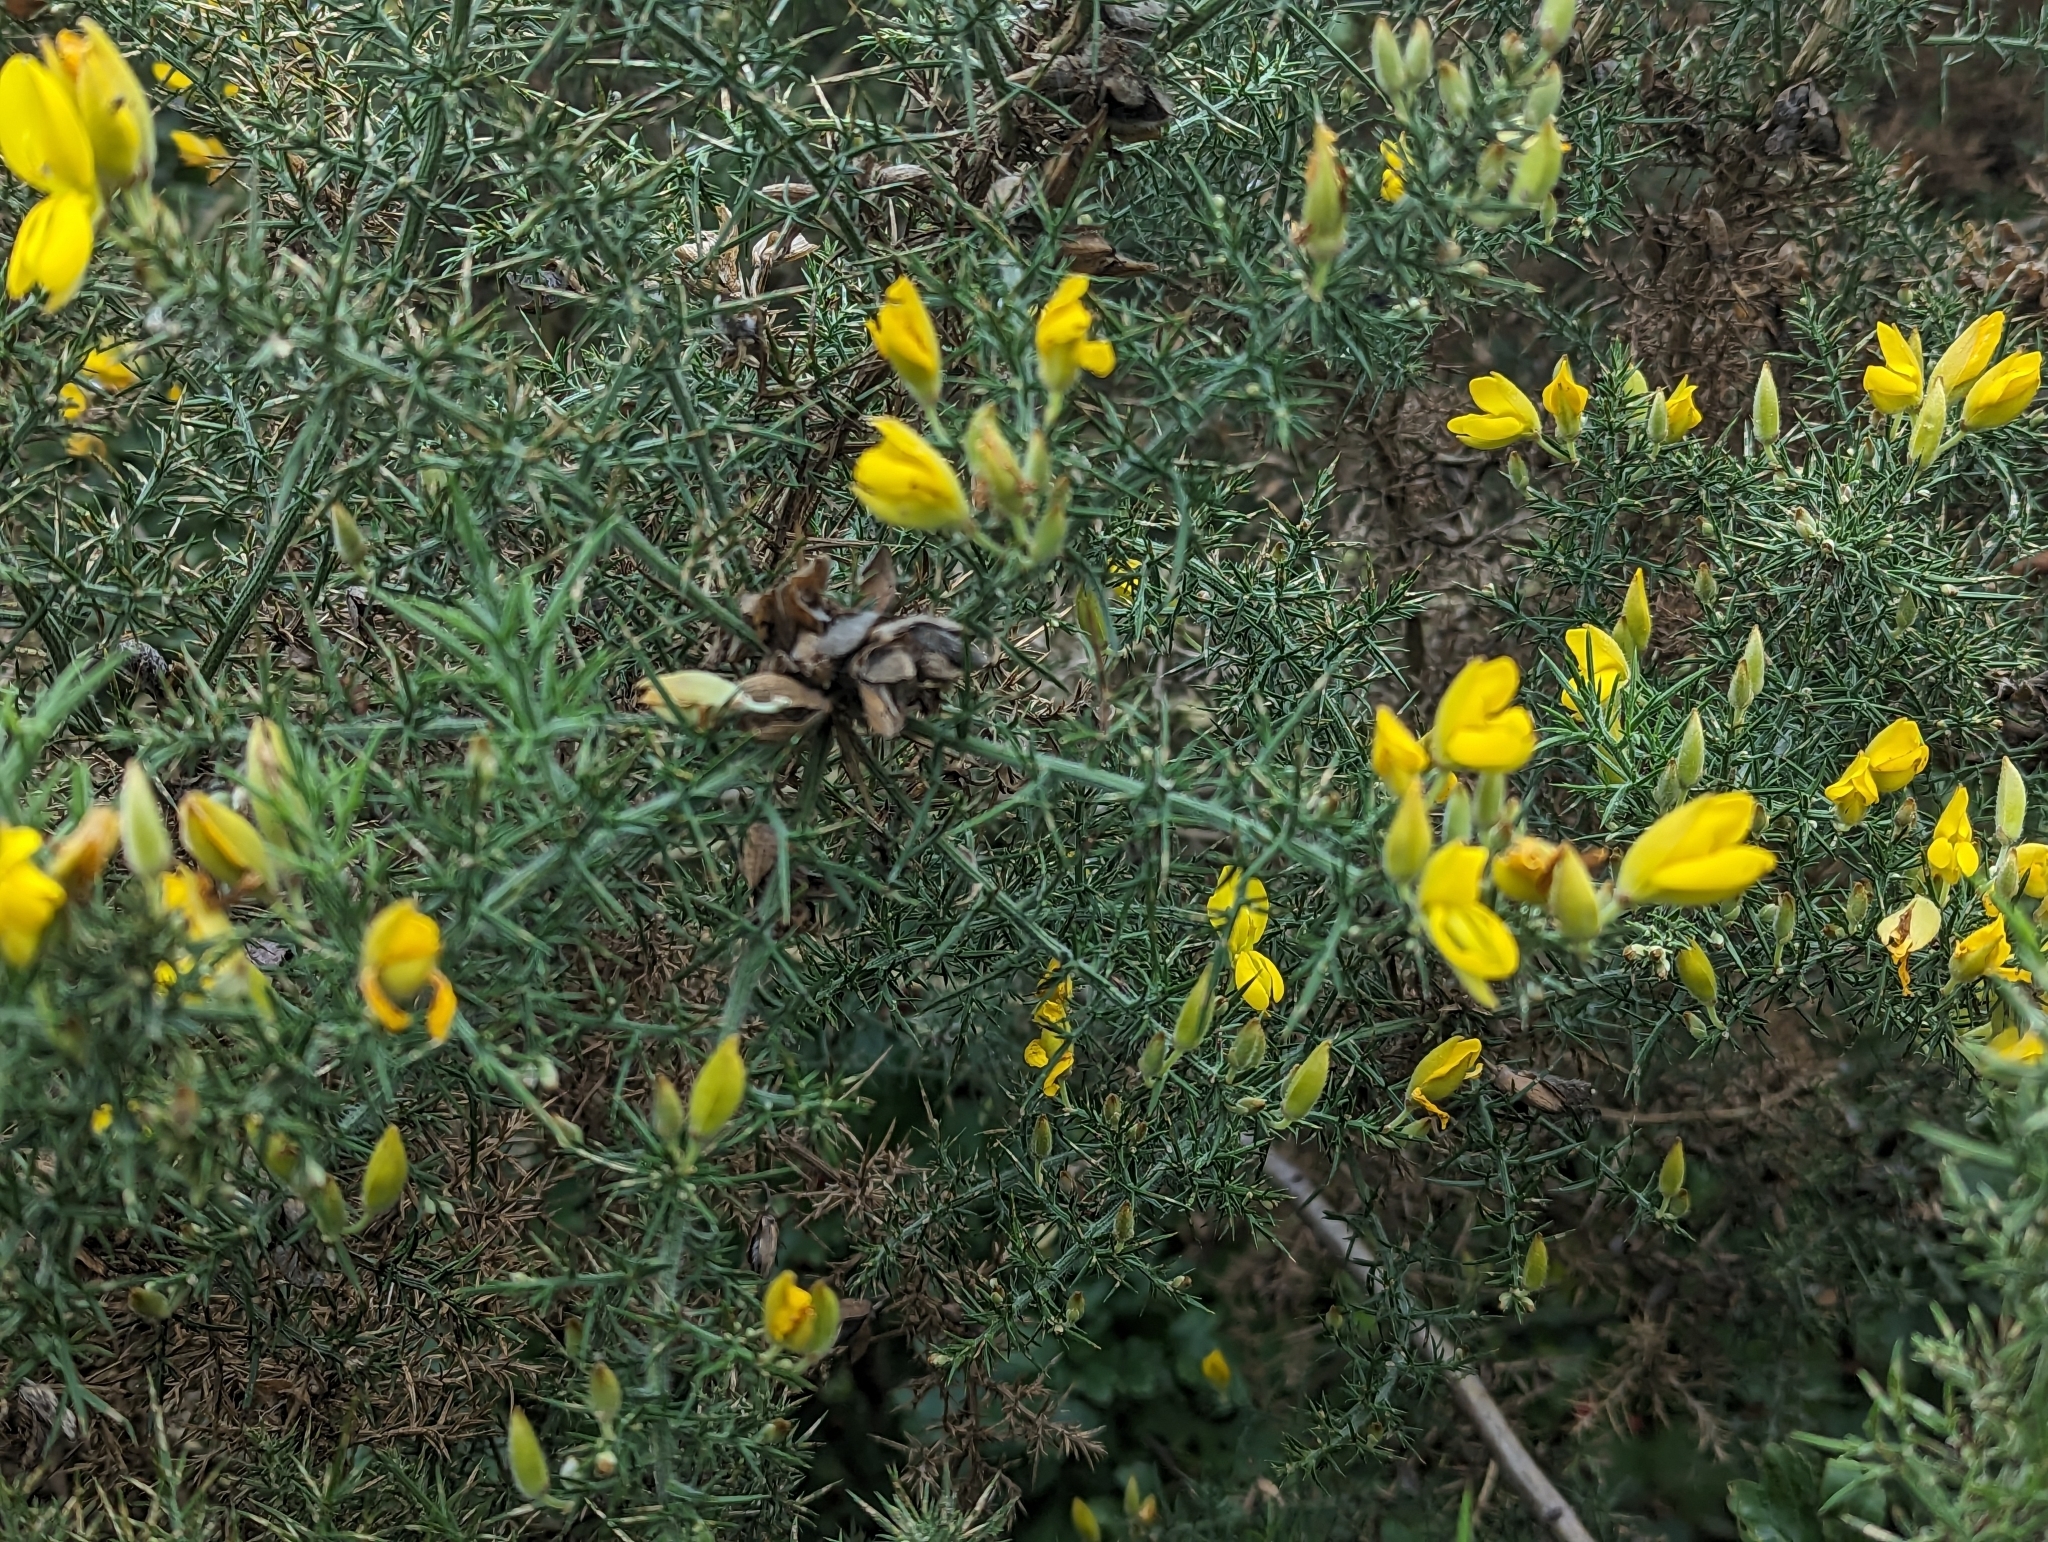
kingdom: Plantae
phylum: Tracheophyta
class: Magnoliopsida
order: Fabales
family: Fabaceae
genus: Ulex
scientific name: Ulex europaeus
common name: Common gorse
